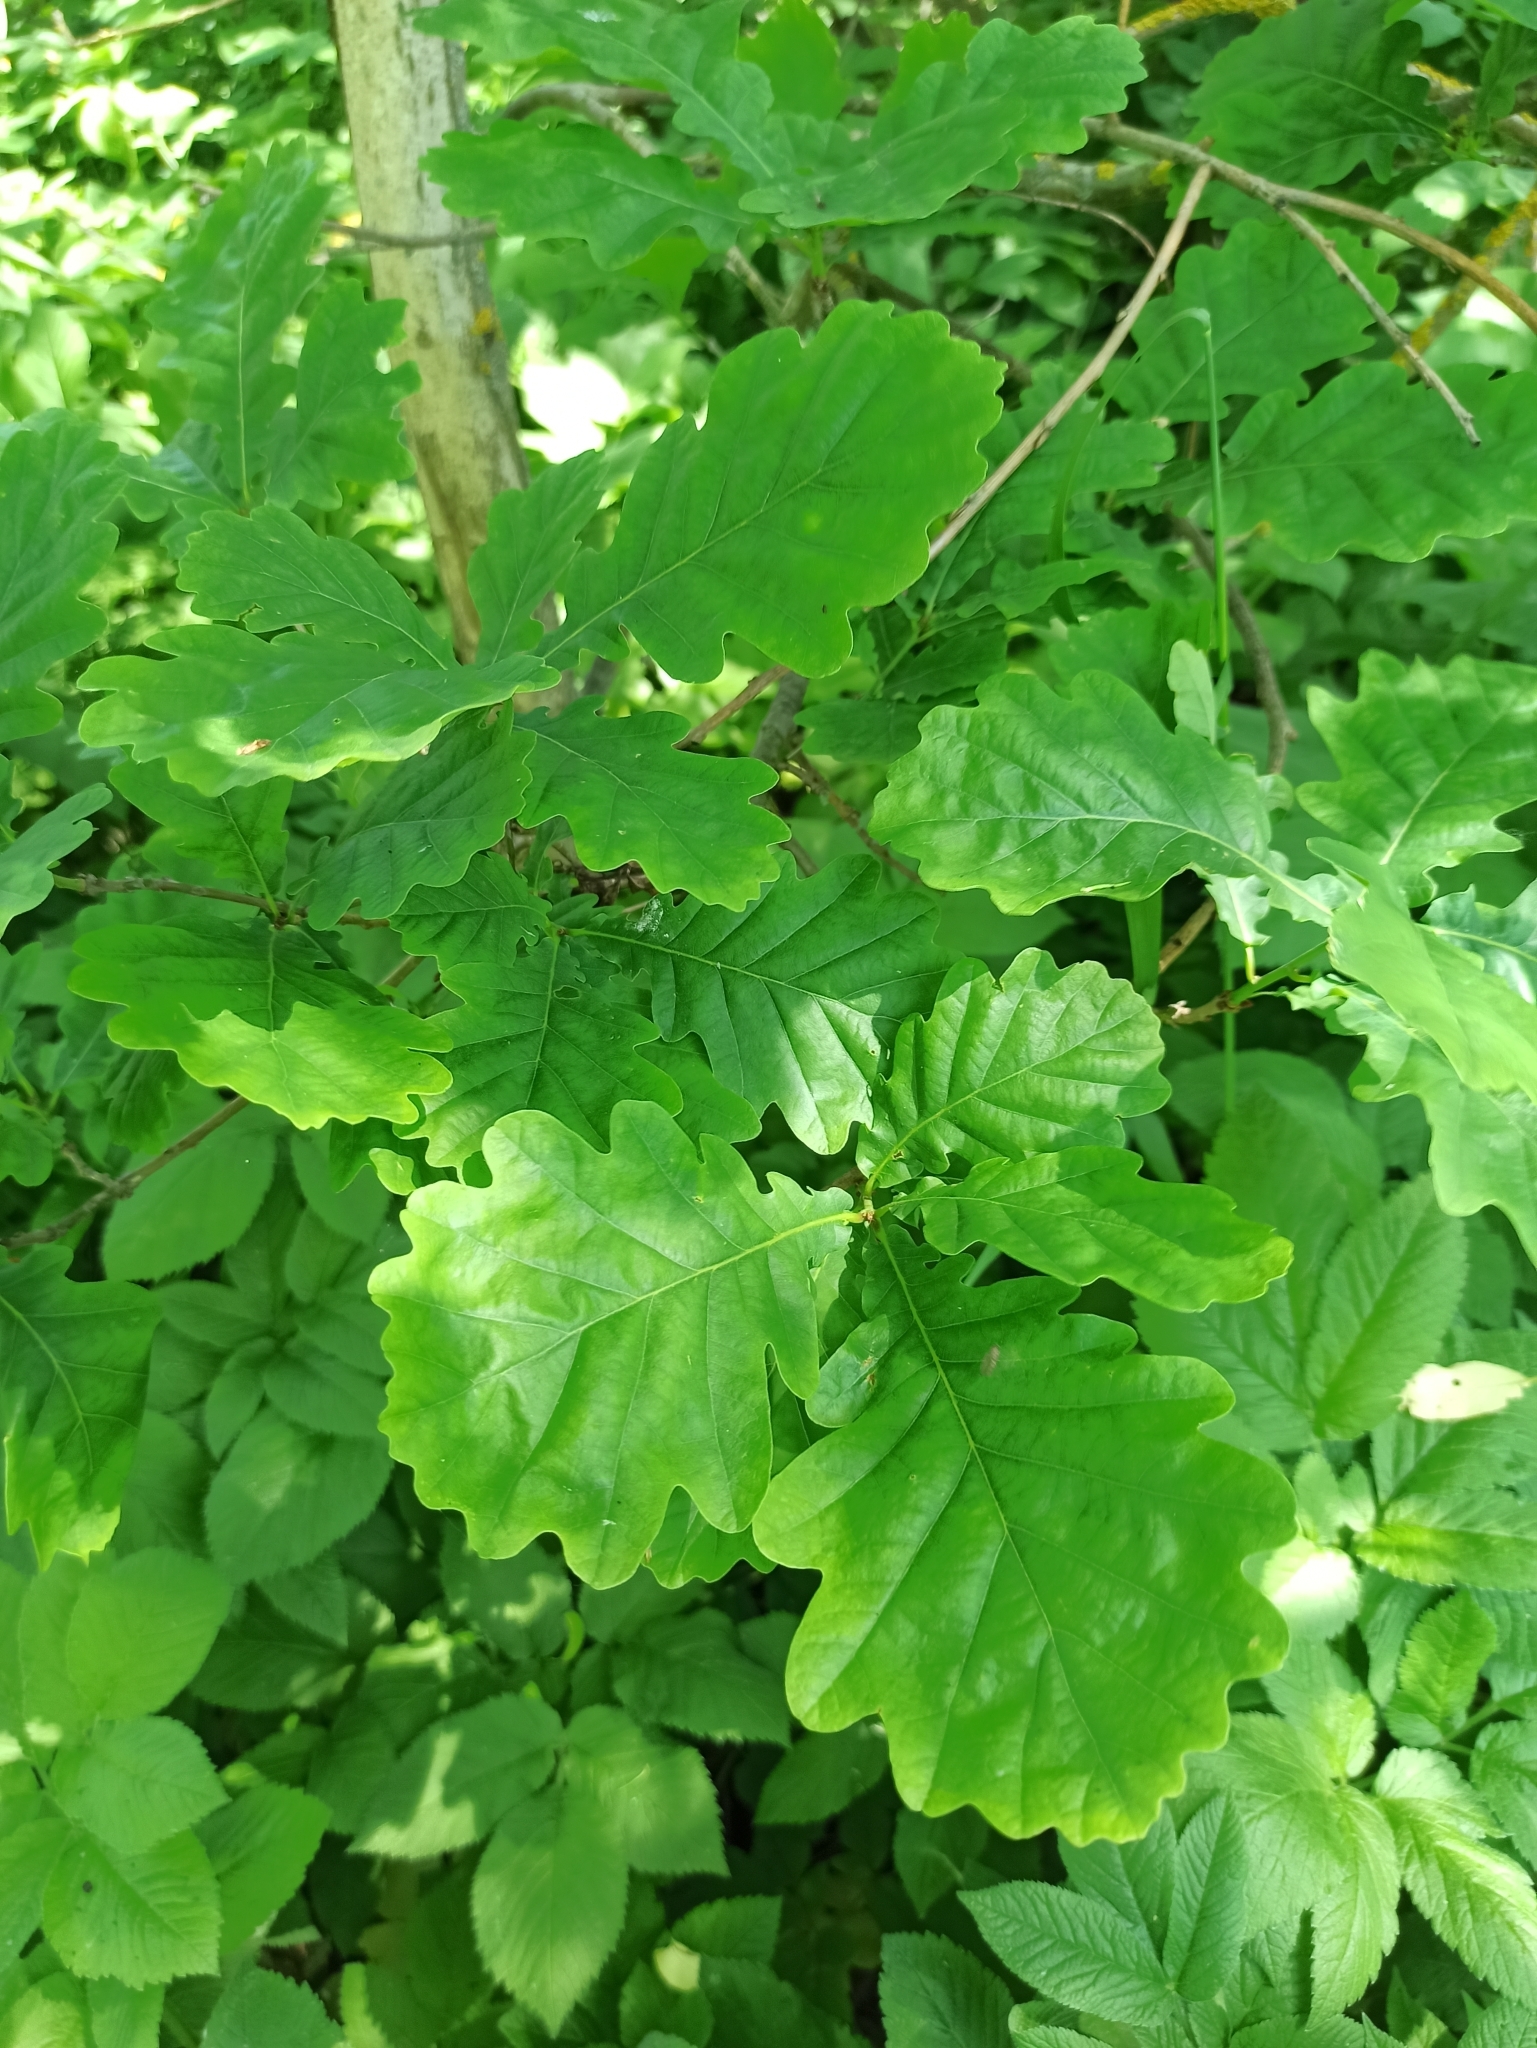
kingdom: Plantae
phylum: Tracheophyta
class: Magnoliopsida
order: Fagales
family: Fagaceae
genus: Quercus
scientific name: Quercus robur
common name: Pedunculate oak
